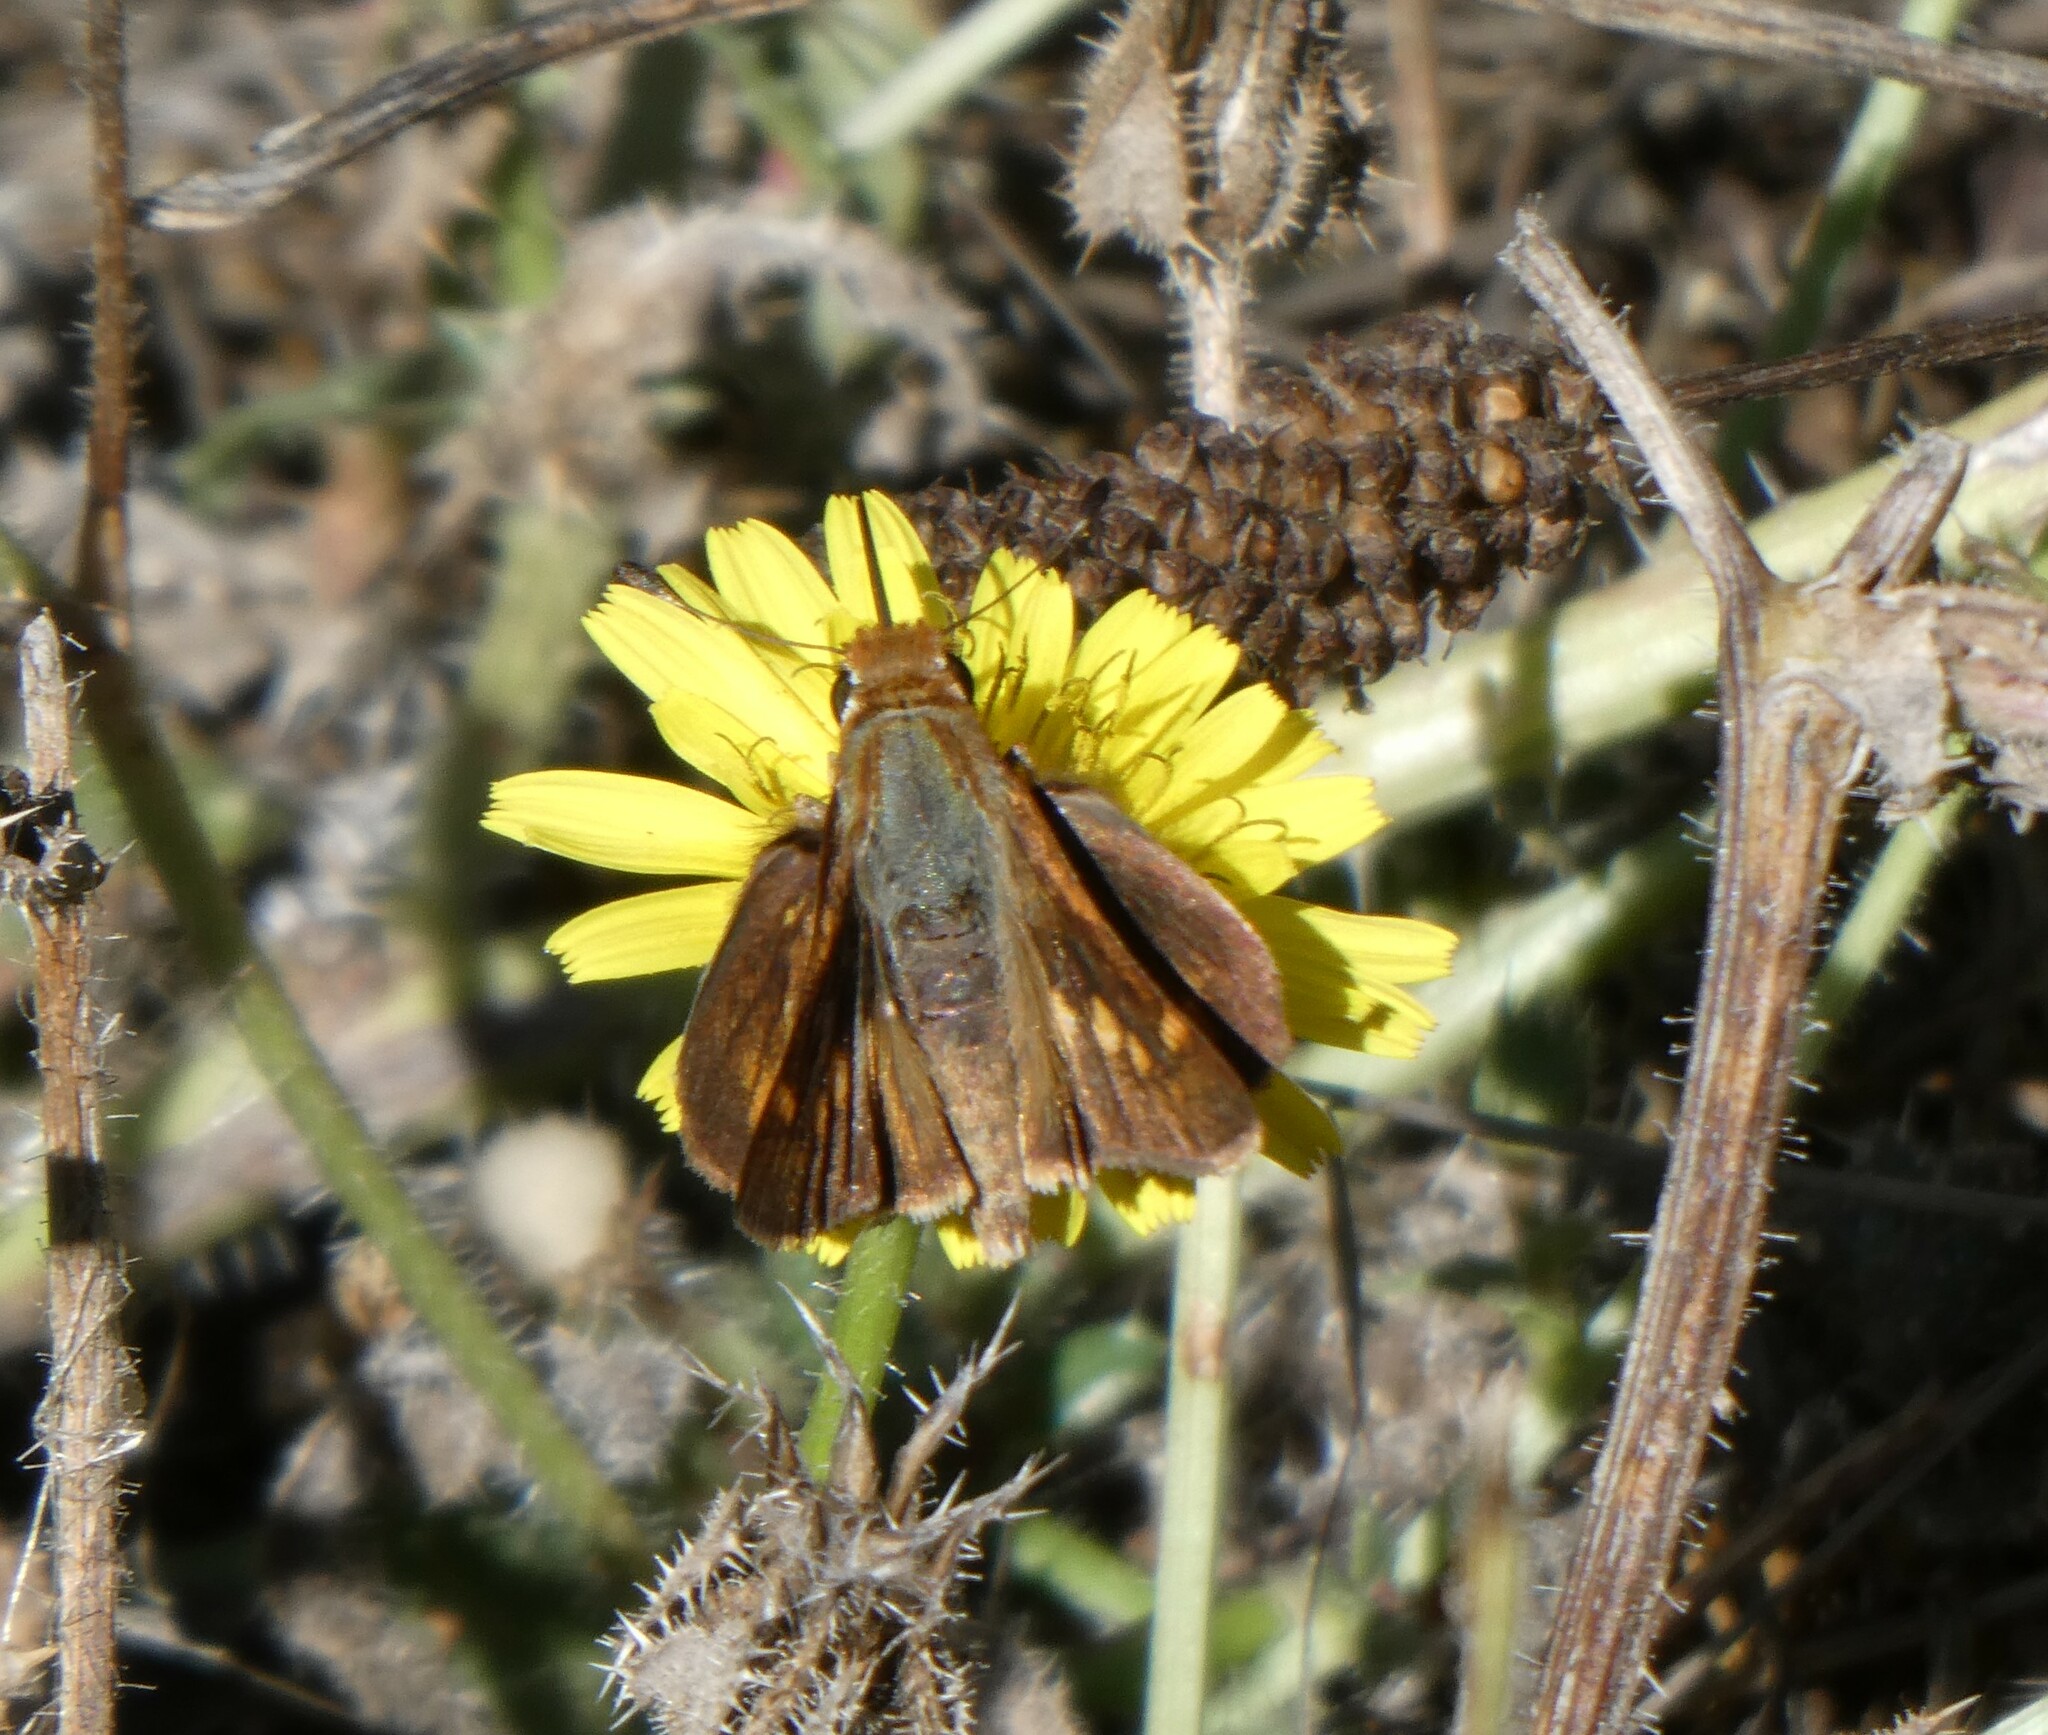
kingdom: Animalia
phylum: Arthropoda
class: Insecta
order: Lepidoptera
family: Hesperiidae
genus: Lon
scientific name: Lon melane
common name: Umber skipper
